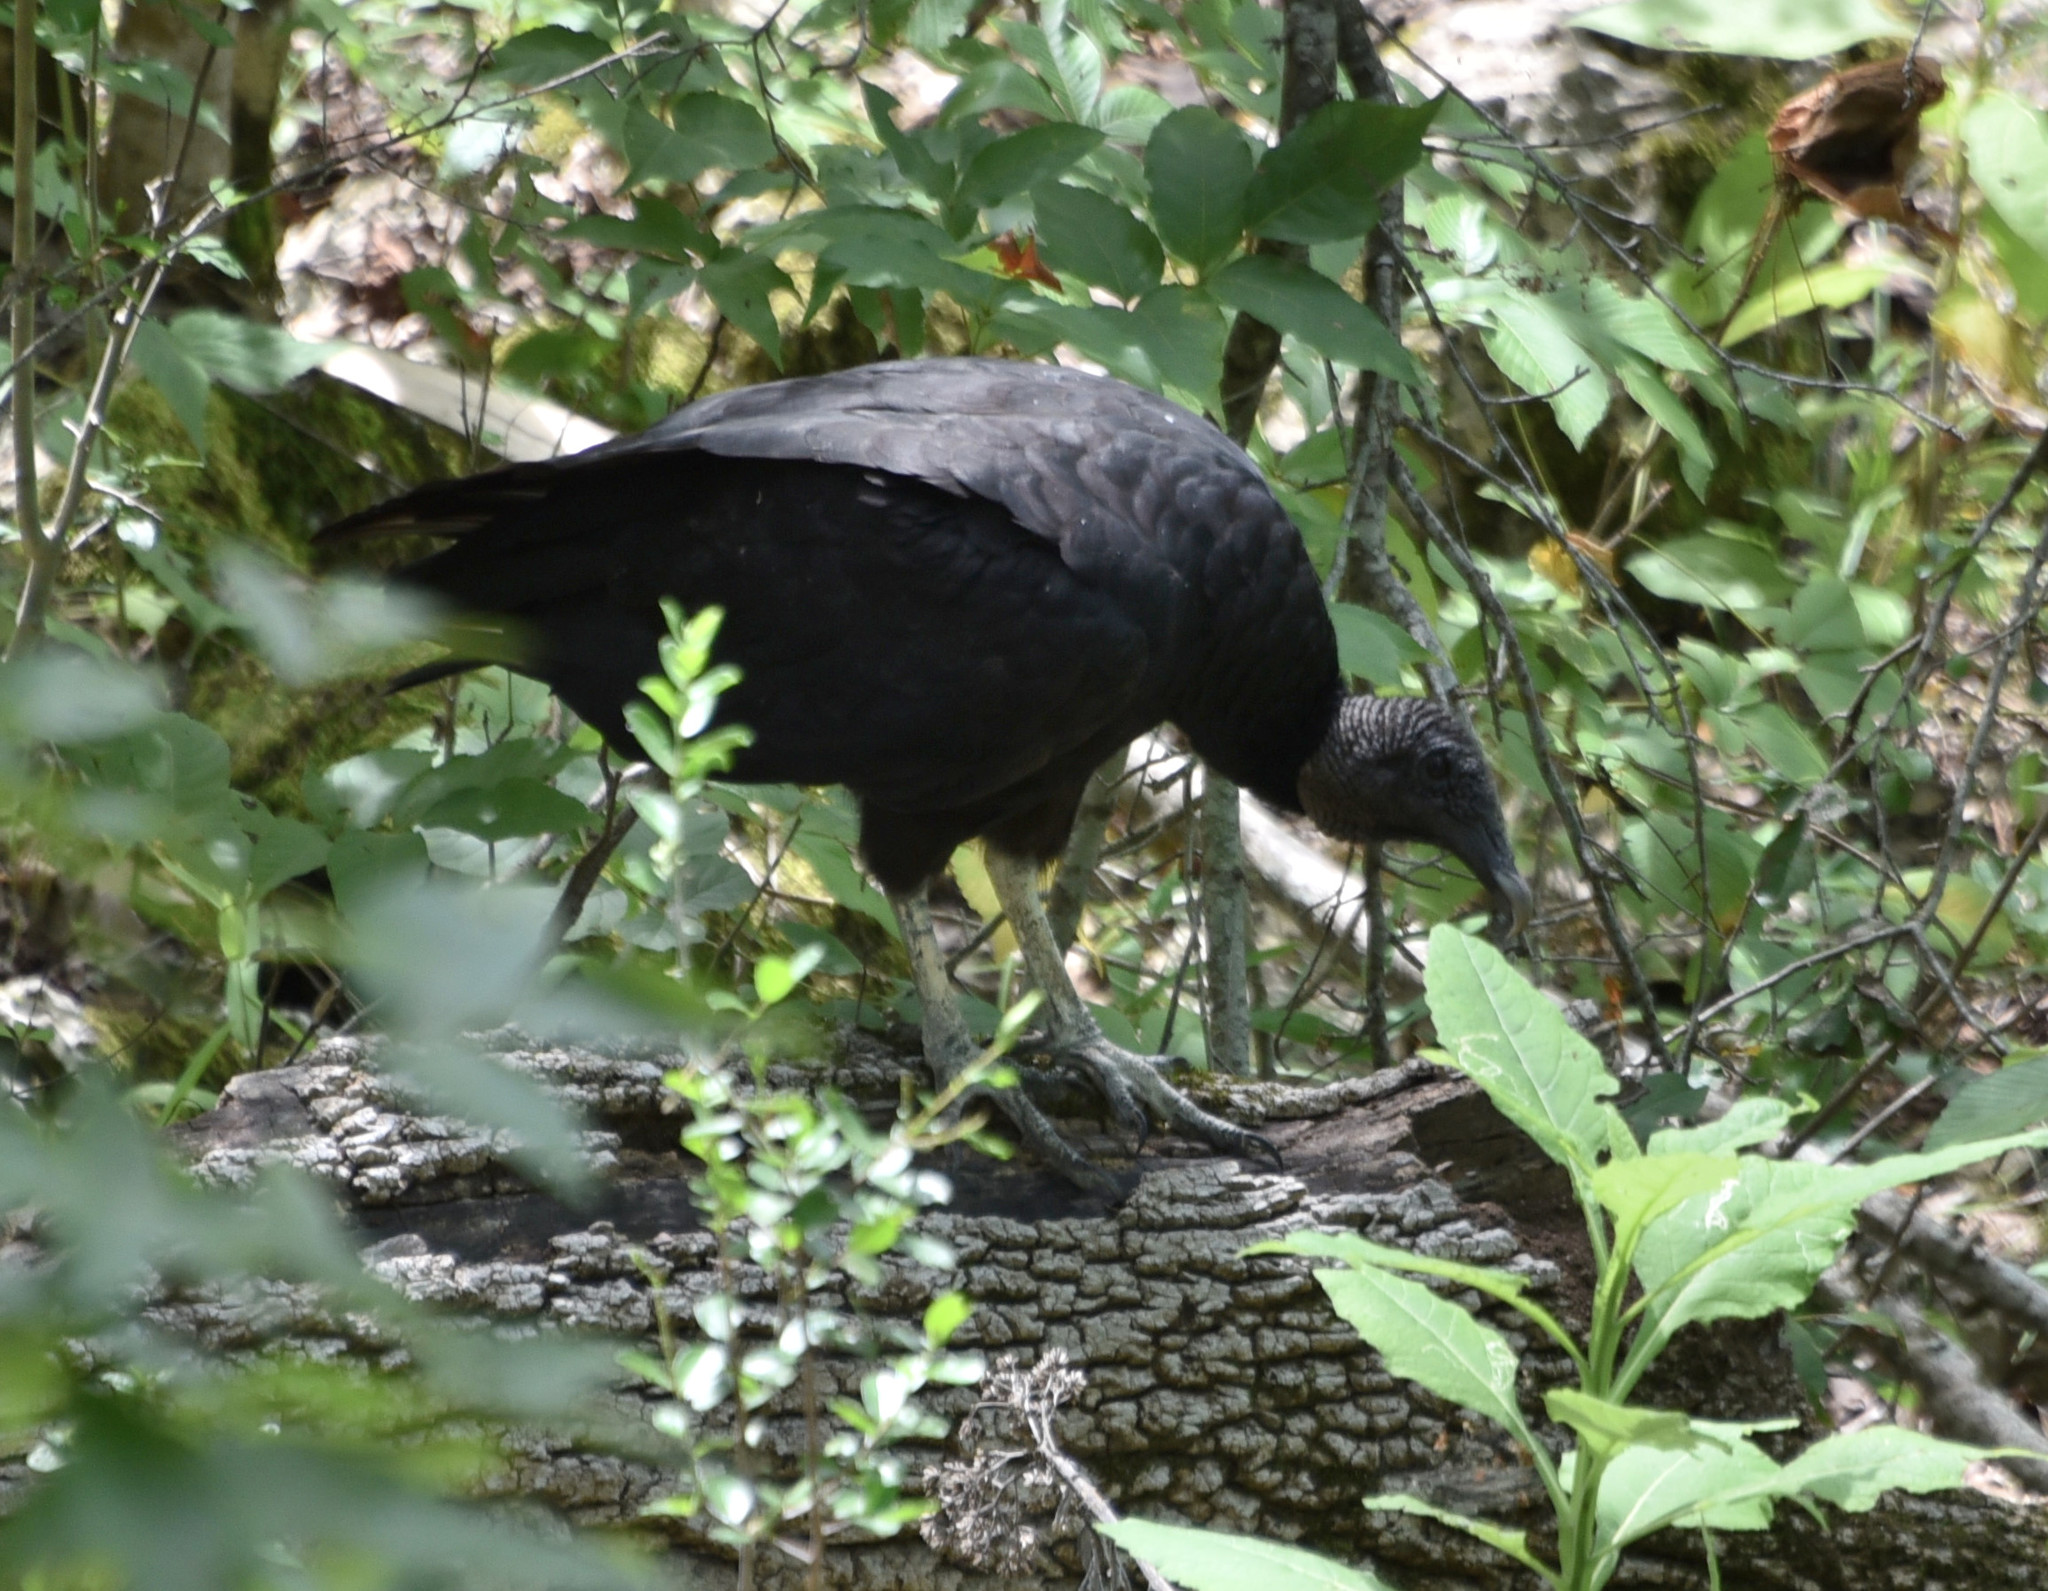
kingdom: Animalia
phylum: Chordata
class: Aves
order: Accipitriformes
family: Cathartidae
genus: Coragyps
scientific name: Coragyps atratus
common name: Black vulture
